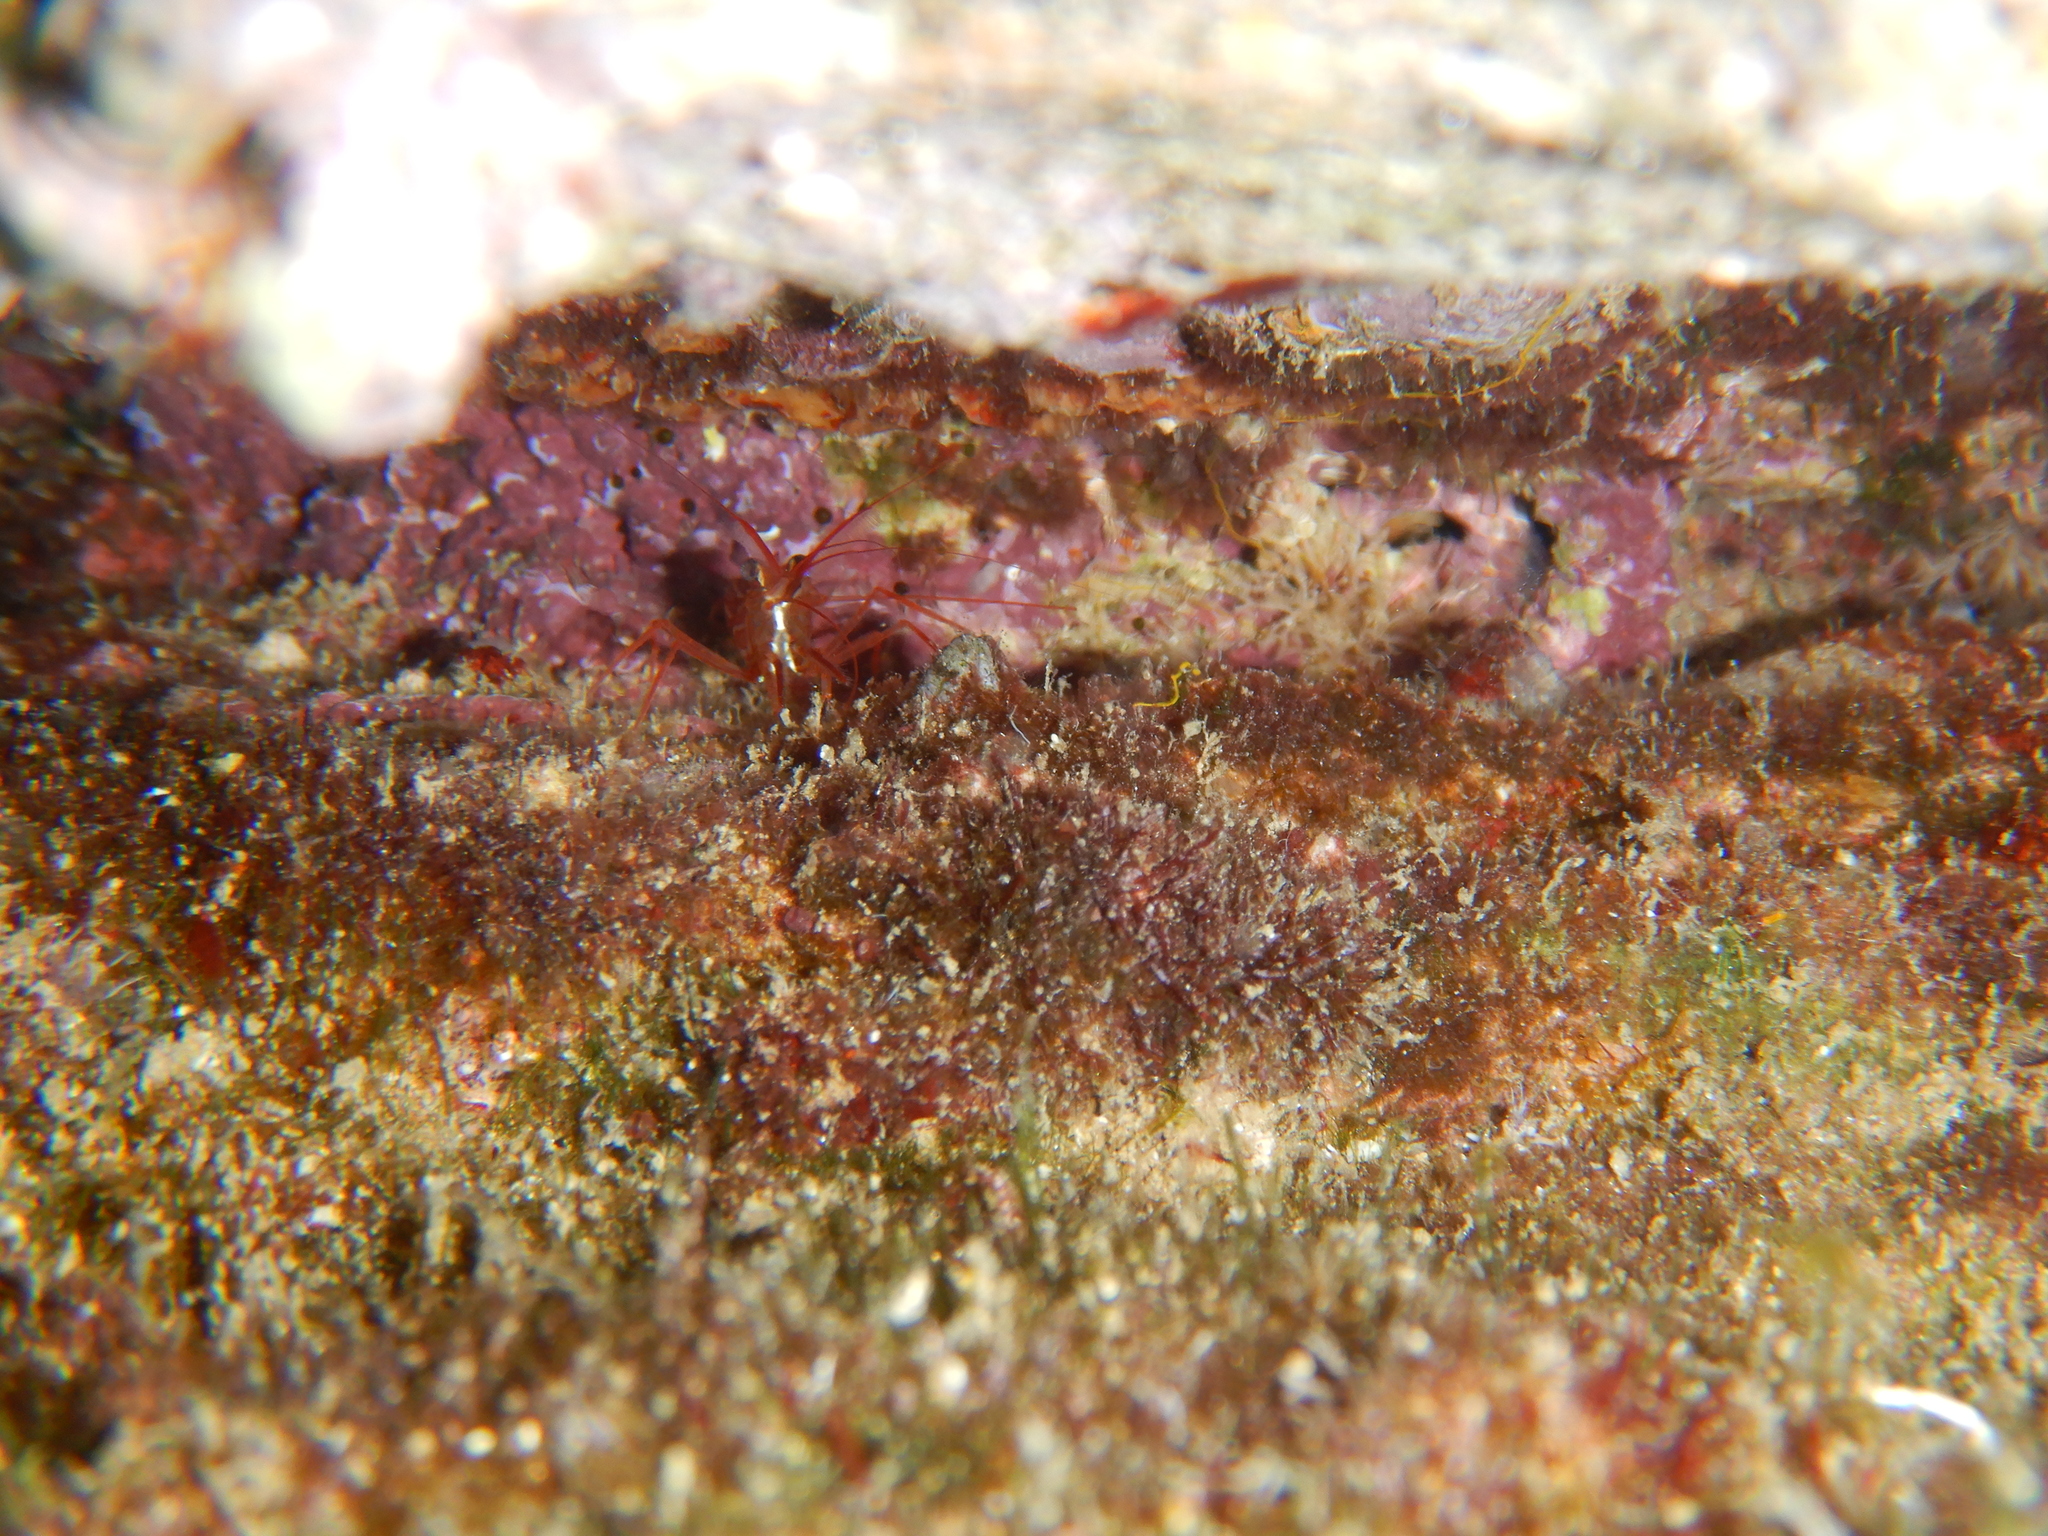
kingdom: Animalia
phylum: Arthropoda
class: Malacostraca
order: Decapoda
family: Lysmatidae
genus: Lysmata
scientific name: Lysmata seticaudata
